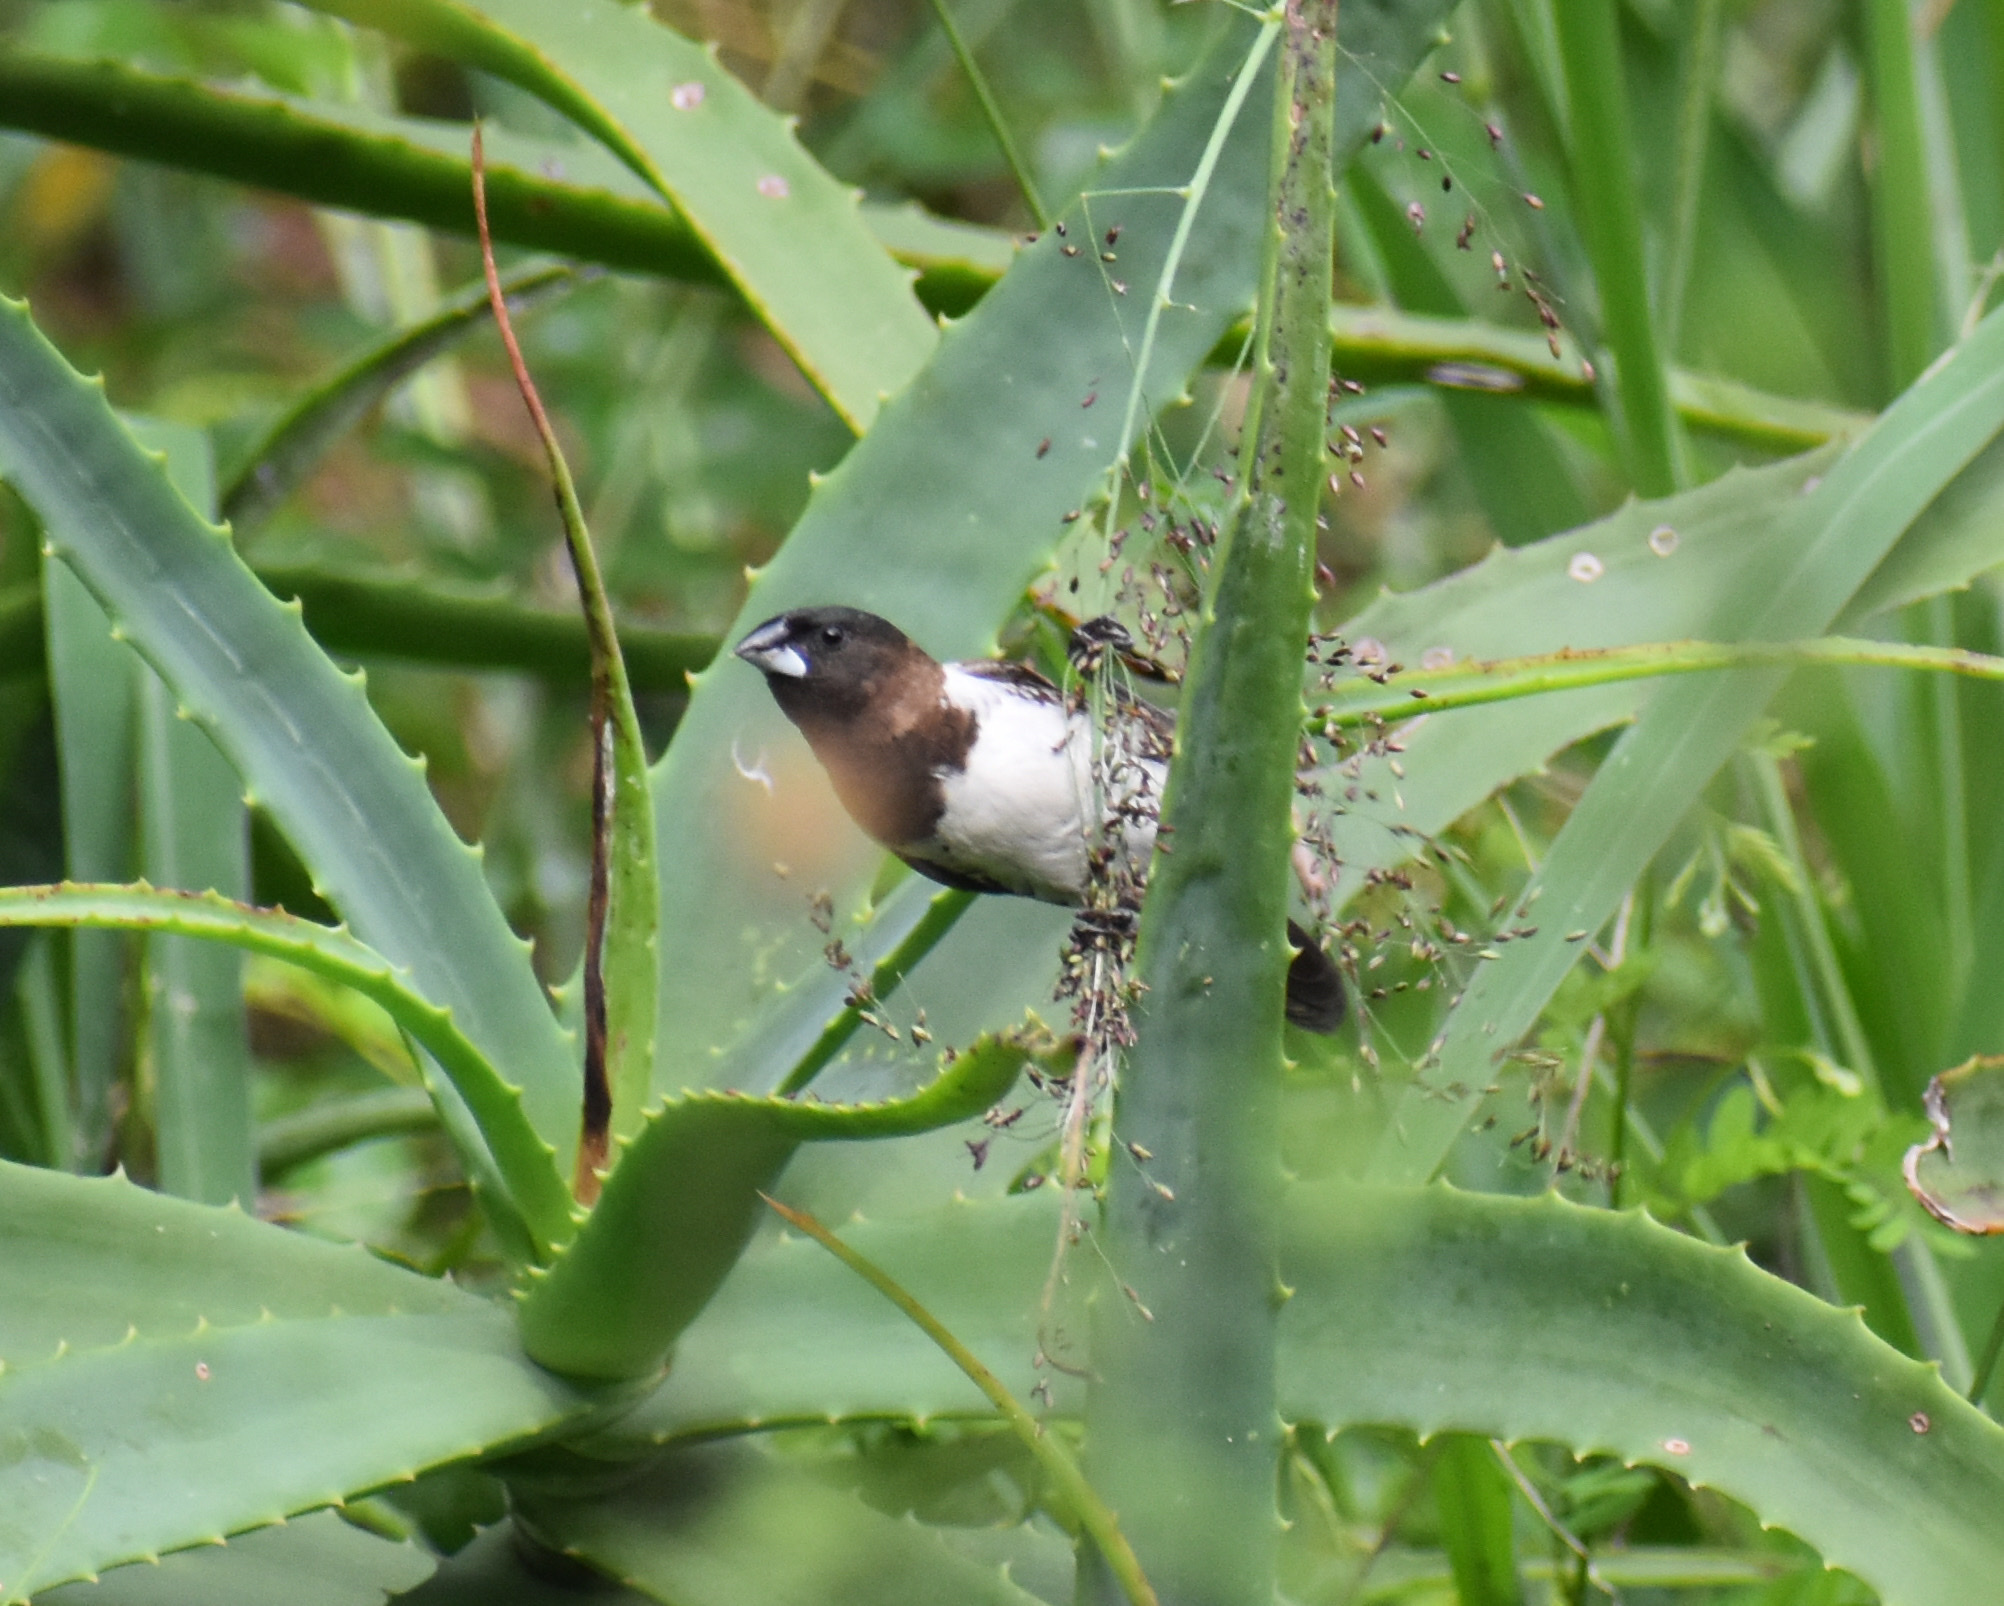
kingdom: Animalia
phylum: Chordata
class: Aves
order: Passeriformes
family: Estrildidae
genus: Lonchura
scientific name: Lonchura cucullata
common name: Bronze mannikin
